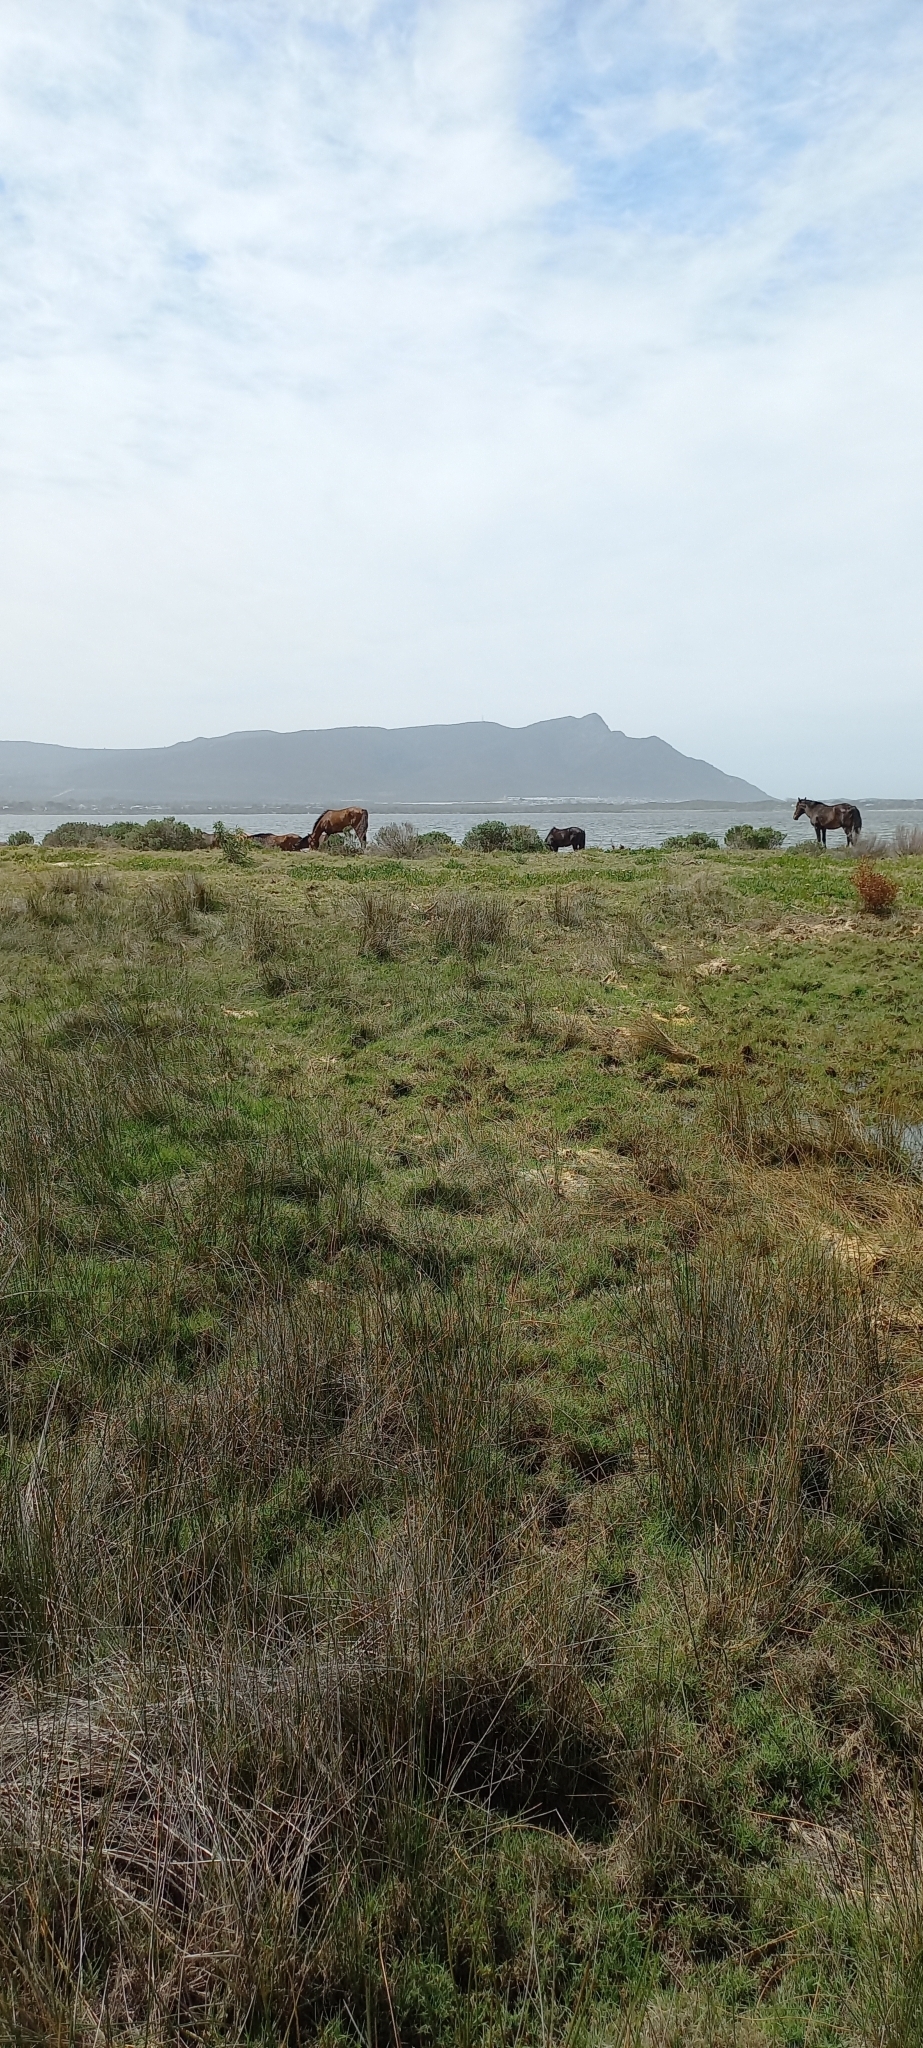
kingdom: Animalia
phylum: Chordata
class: Mammalia
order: Perissodactyla
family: Equidae
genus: Equus
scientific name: Equus caballus
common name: Horse
